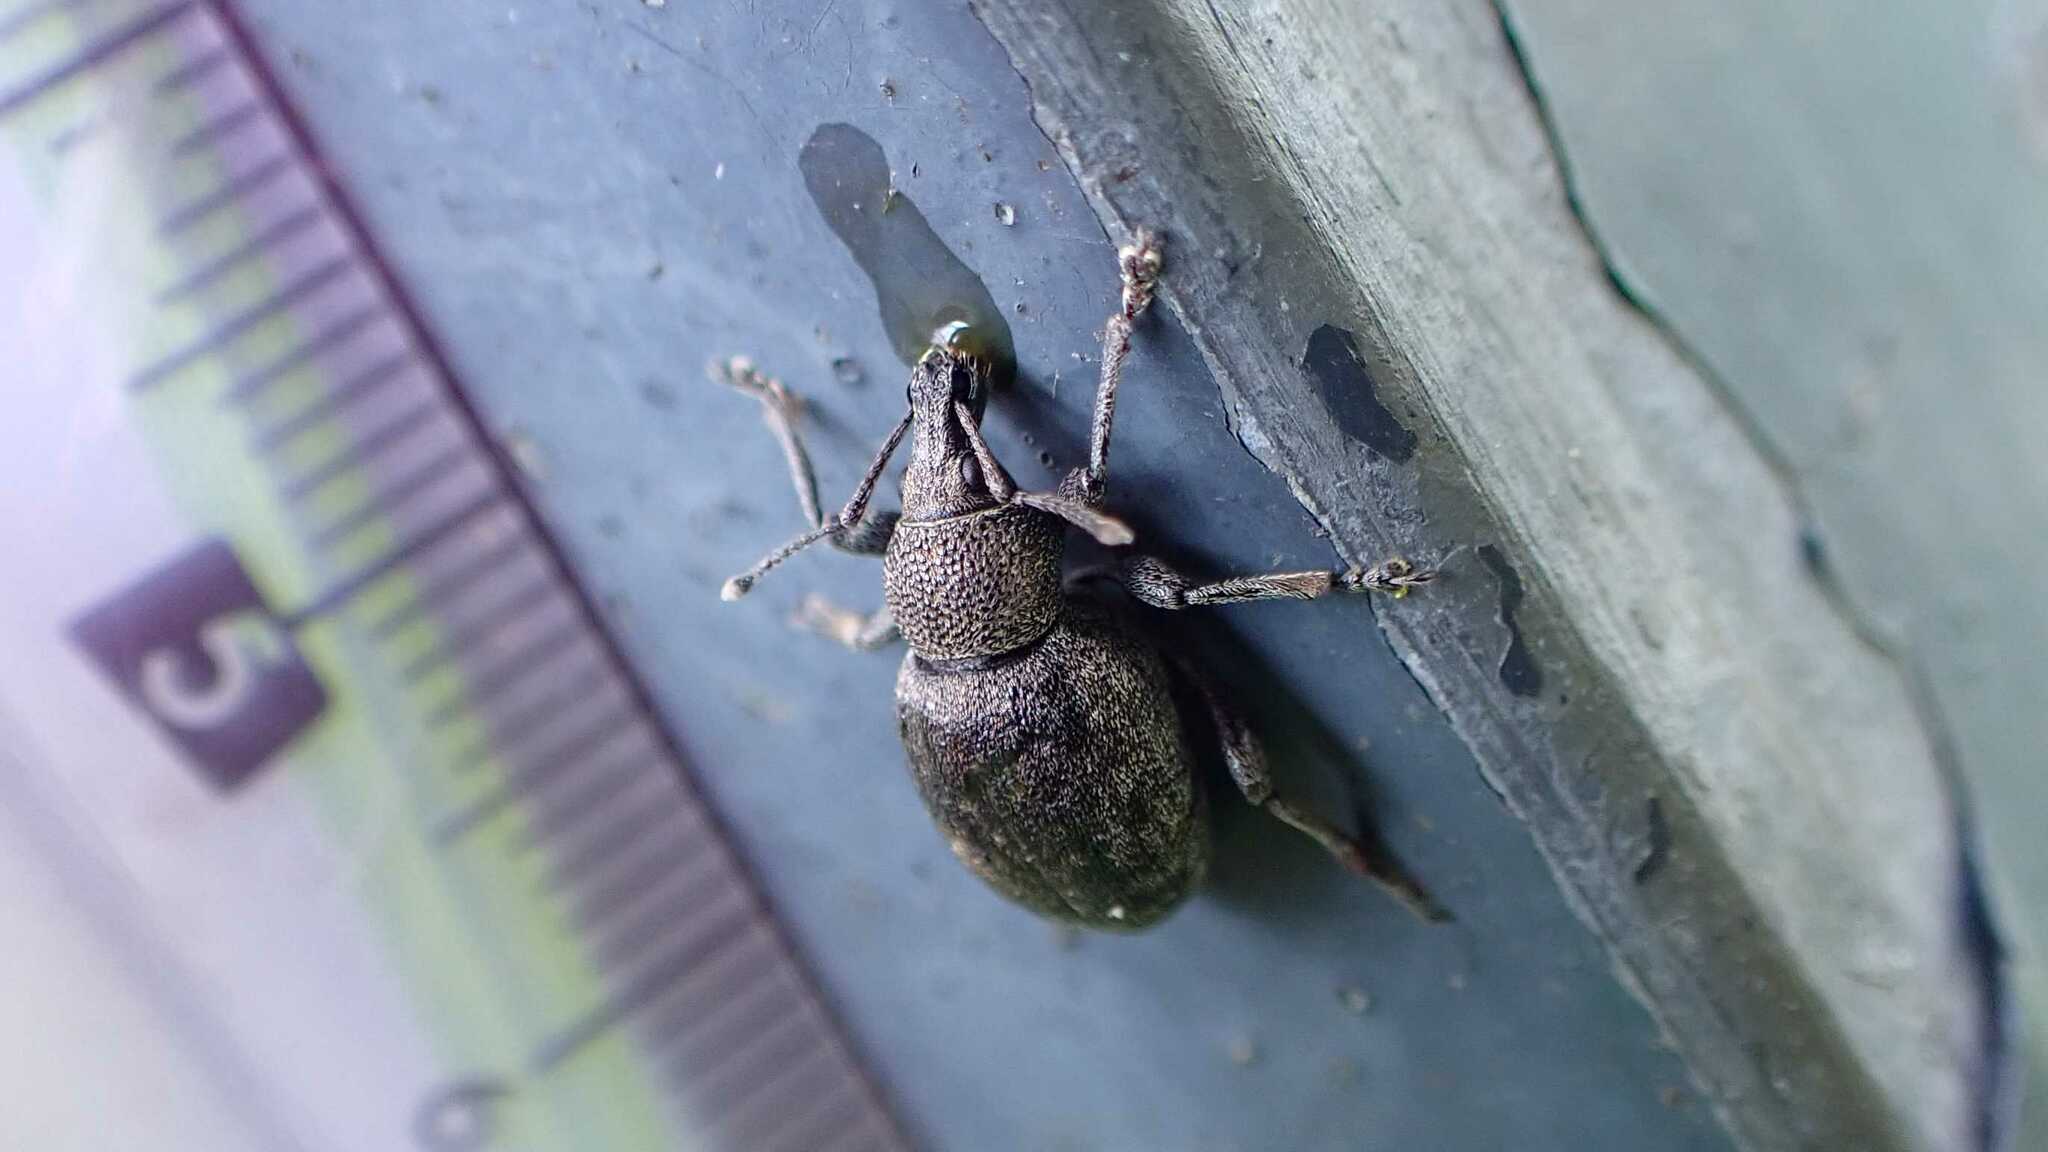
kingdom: Animalia
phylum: Arthropoda
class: Insecta
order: Coleoptera
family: Curculionidae
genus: Otiorhynchus
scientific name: Otiorhynchus ligustici
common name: Weevil
